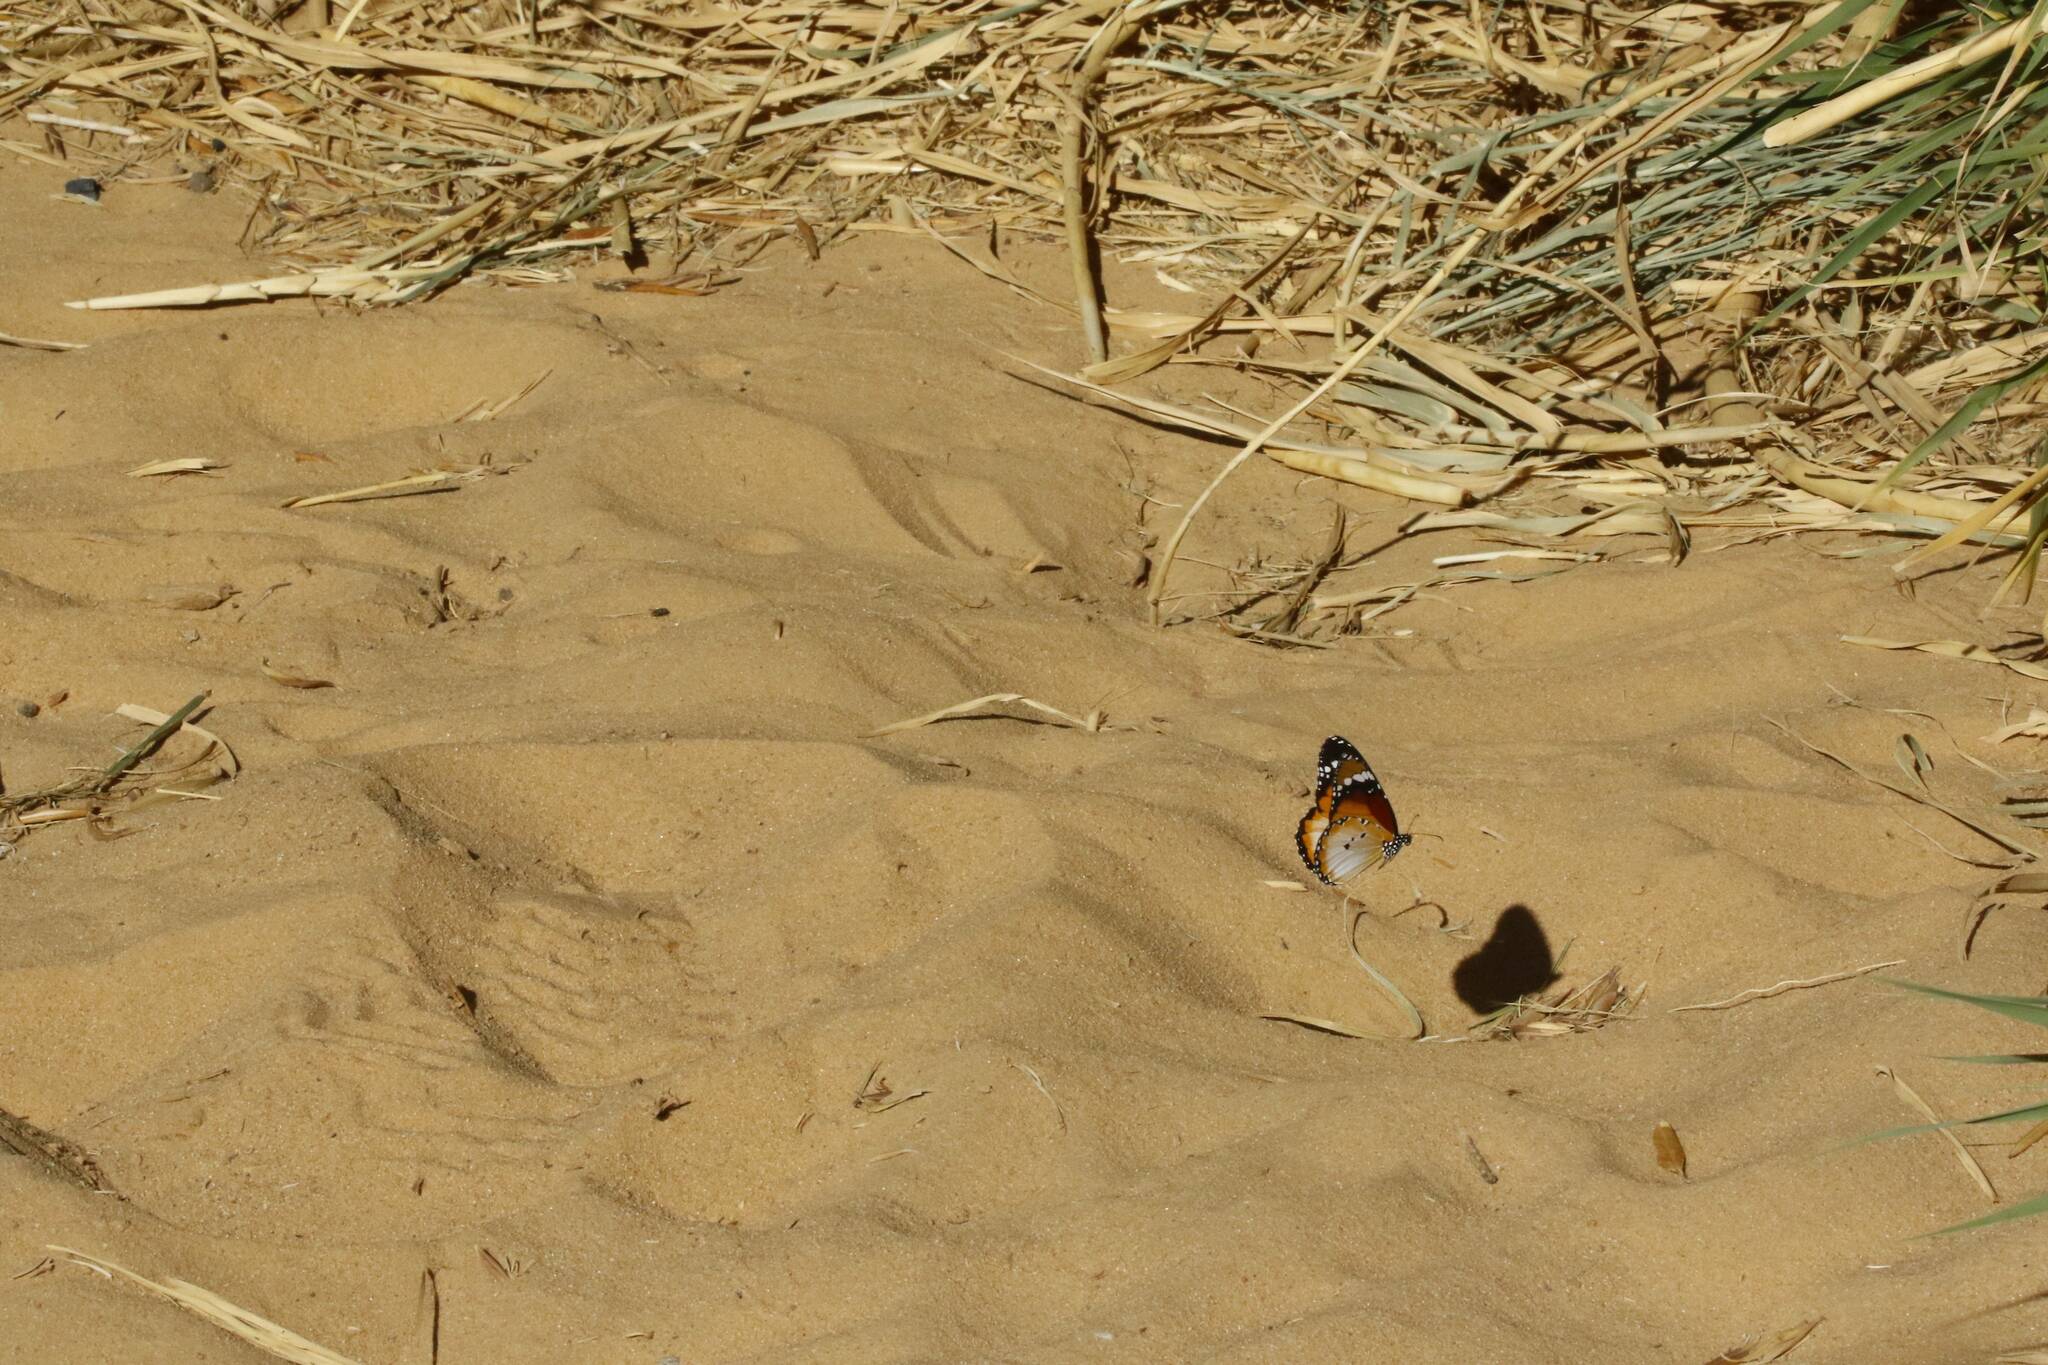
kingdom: Animalia
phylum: Arthropoda
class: Insecta
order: Lepidoptera
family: Nymphalidae
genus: Danaus
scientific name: Danaus chrysippus
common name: Plain tiger
